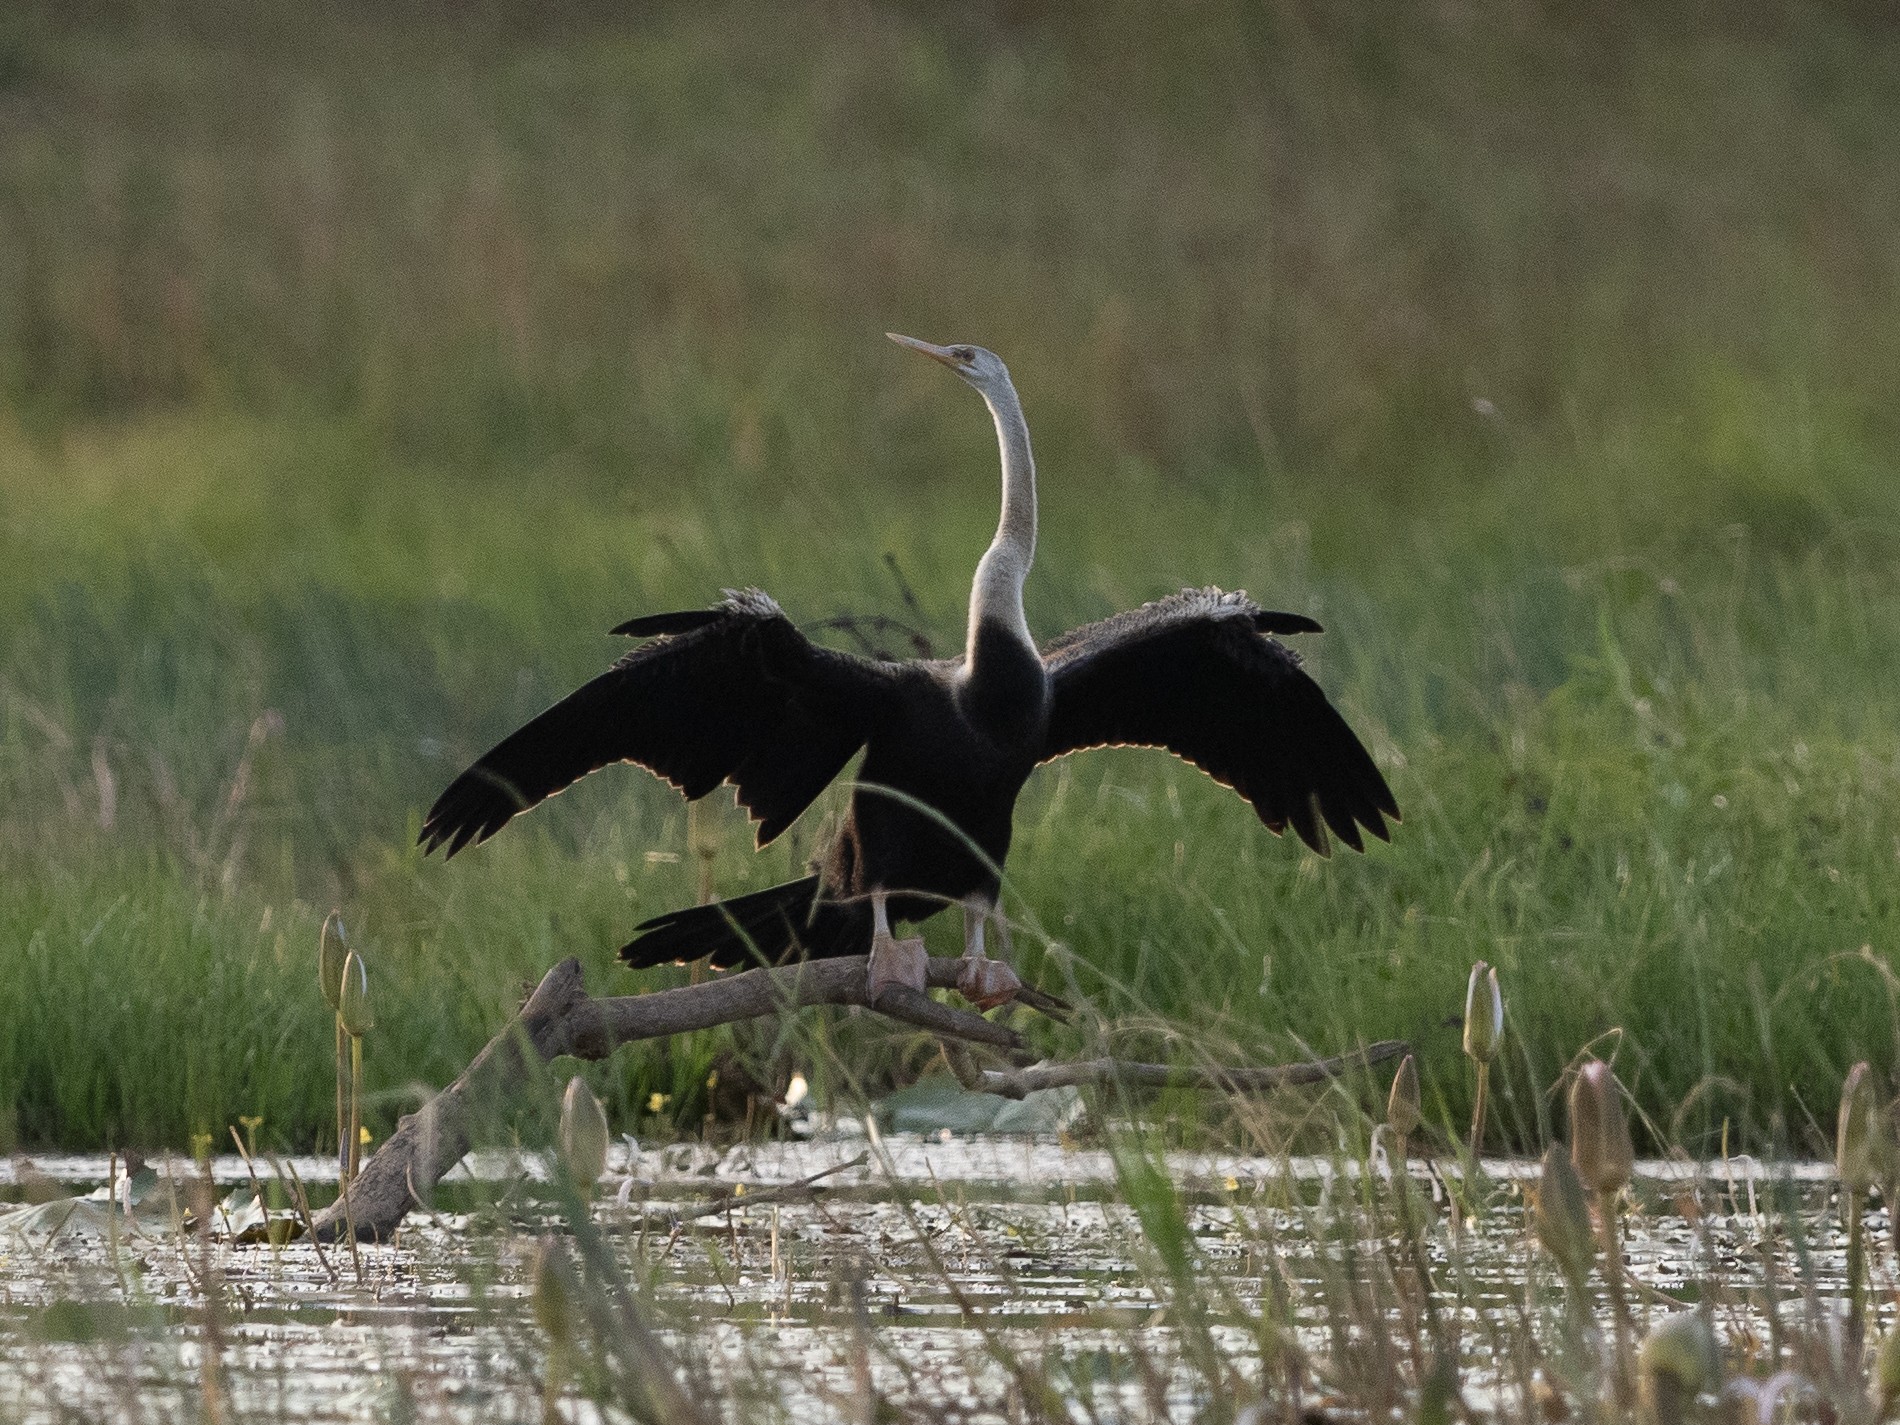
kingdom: Animalia
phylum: Chordata
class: Aves
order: Suliformes
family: Anhingidae
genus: Anhinga
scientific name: Anhinga melanogaster
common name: Oriental darter
